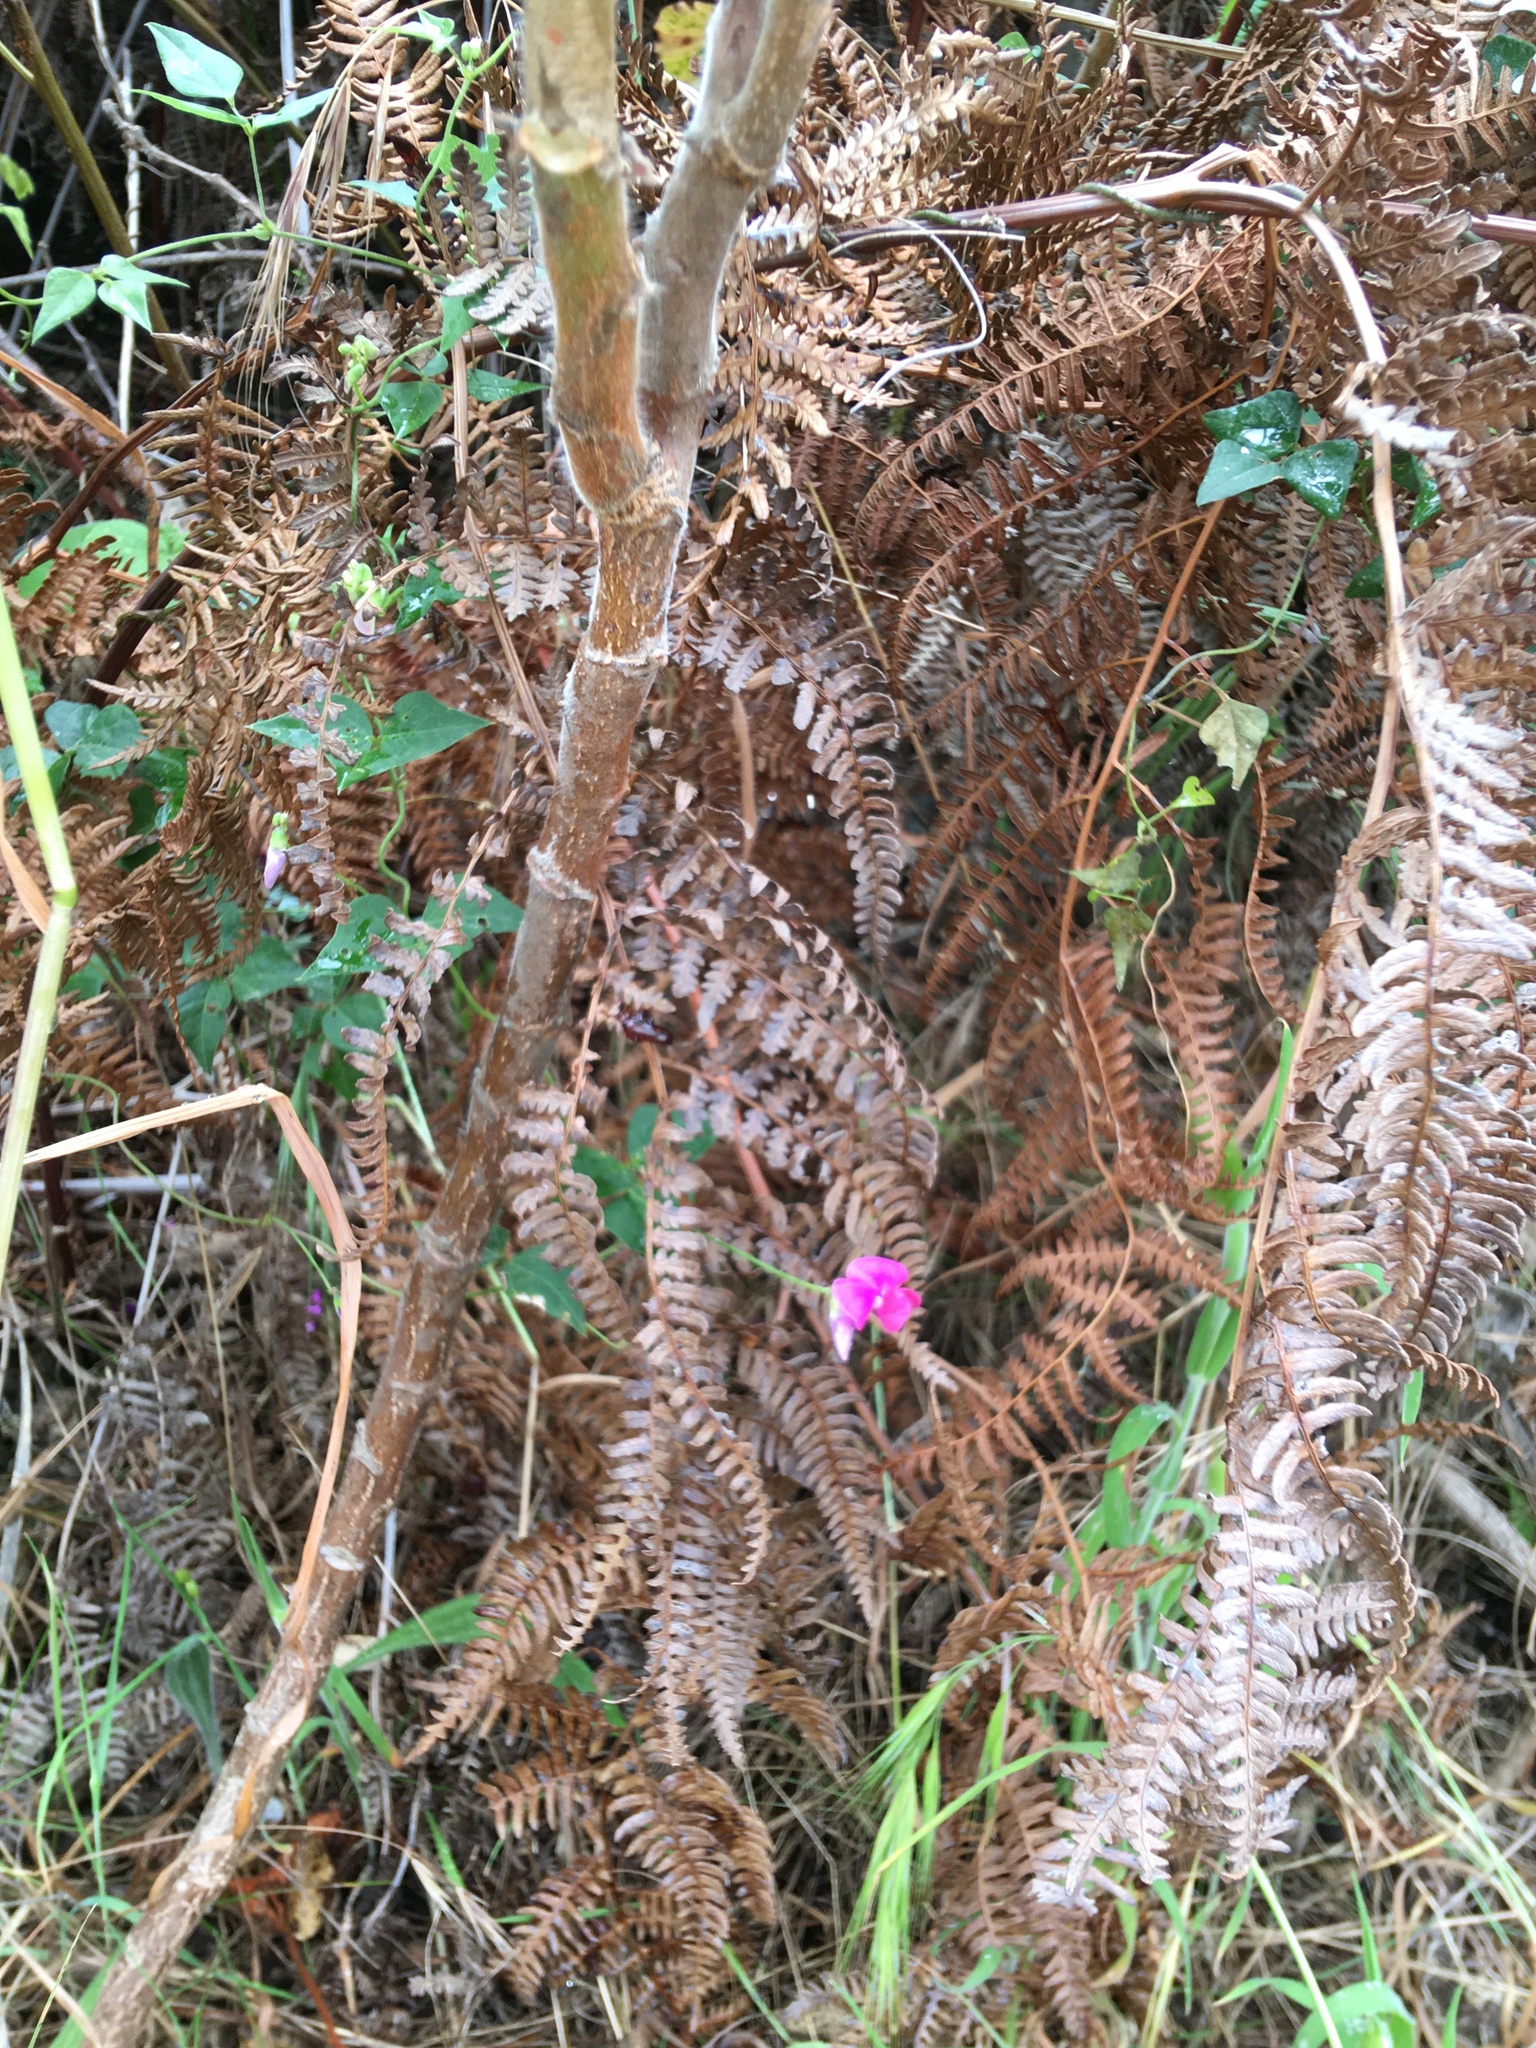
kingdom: Plantae
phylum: Tracheophyta
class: Magnoliopsida
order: Fabales
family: Fabaceae
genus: Dipogon
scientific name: Dipogon lignosus
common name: Okie bean
